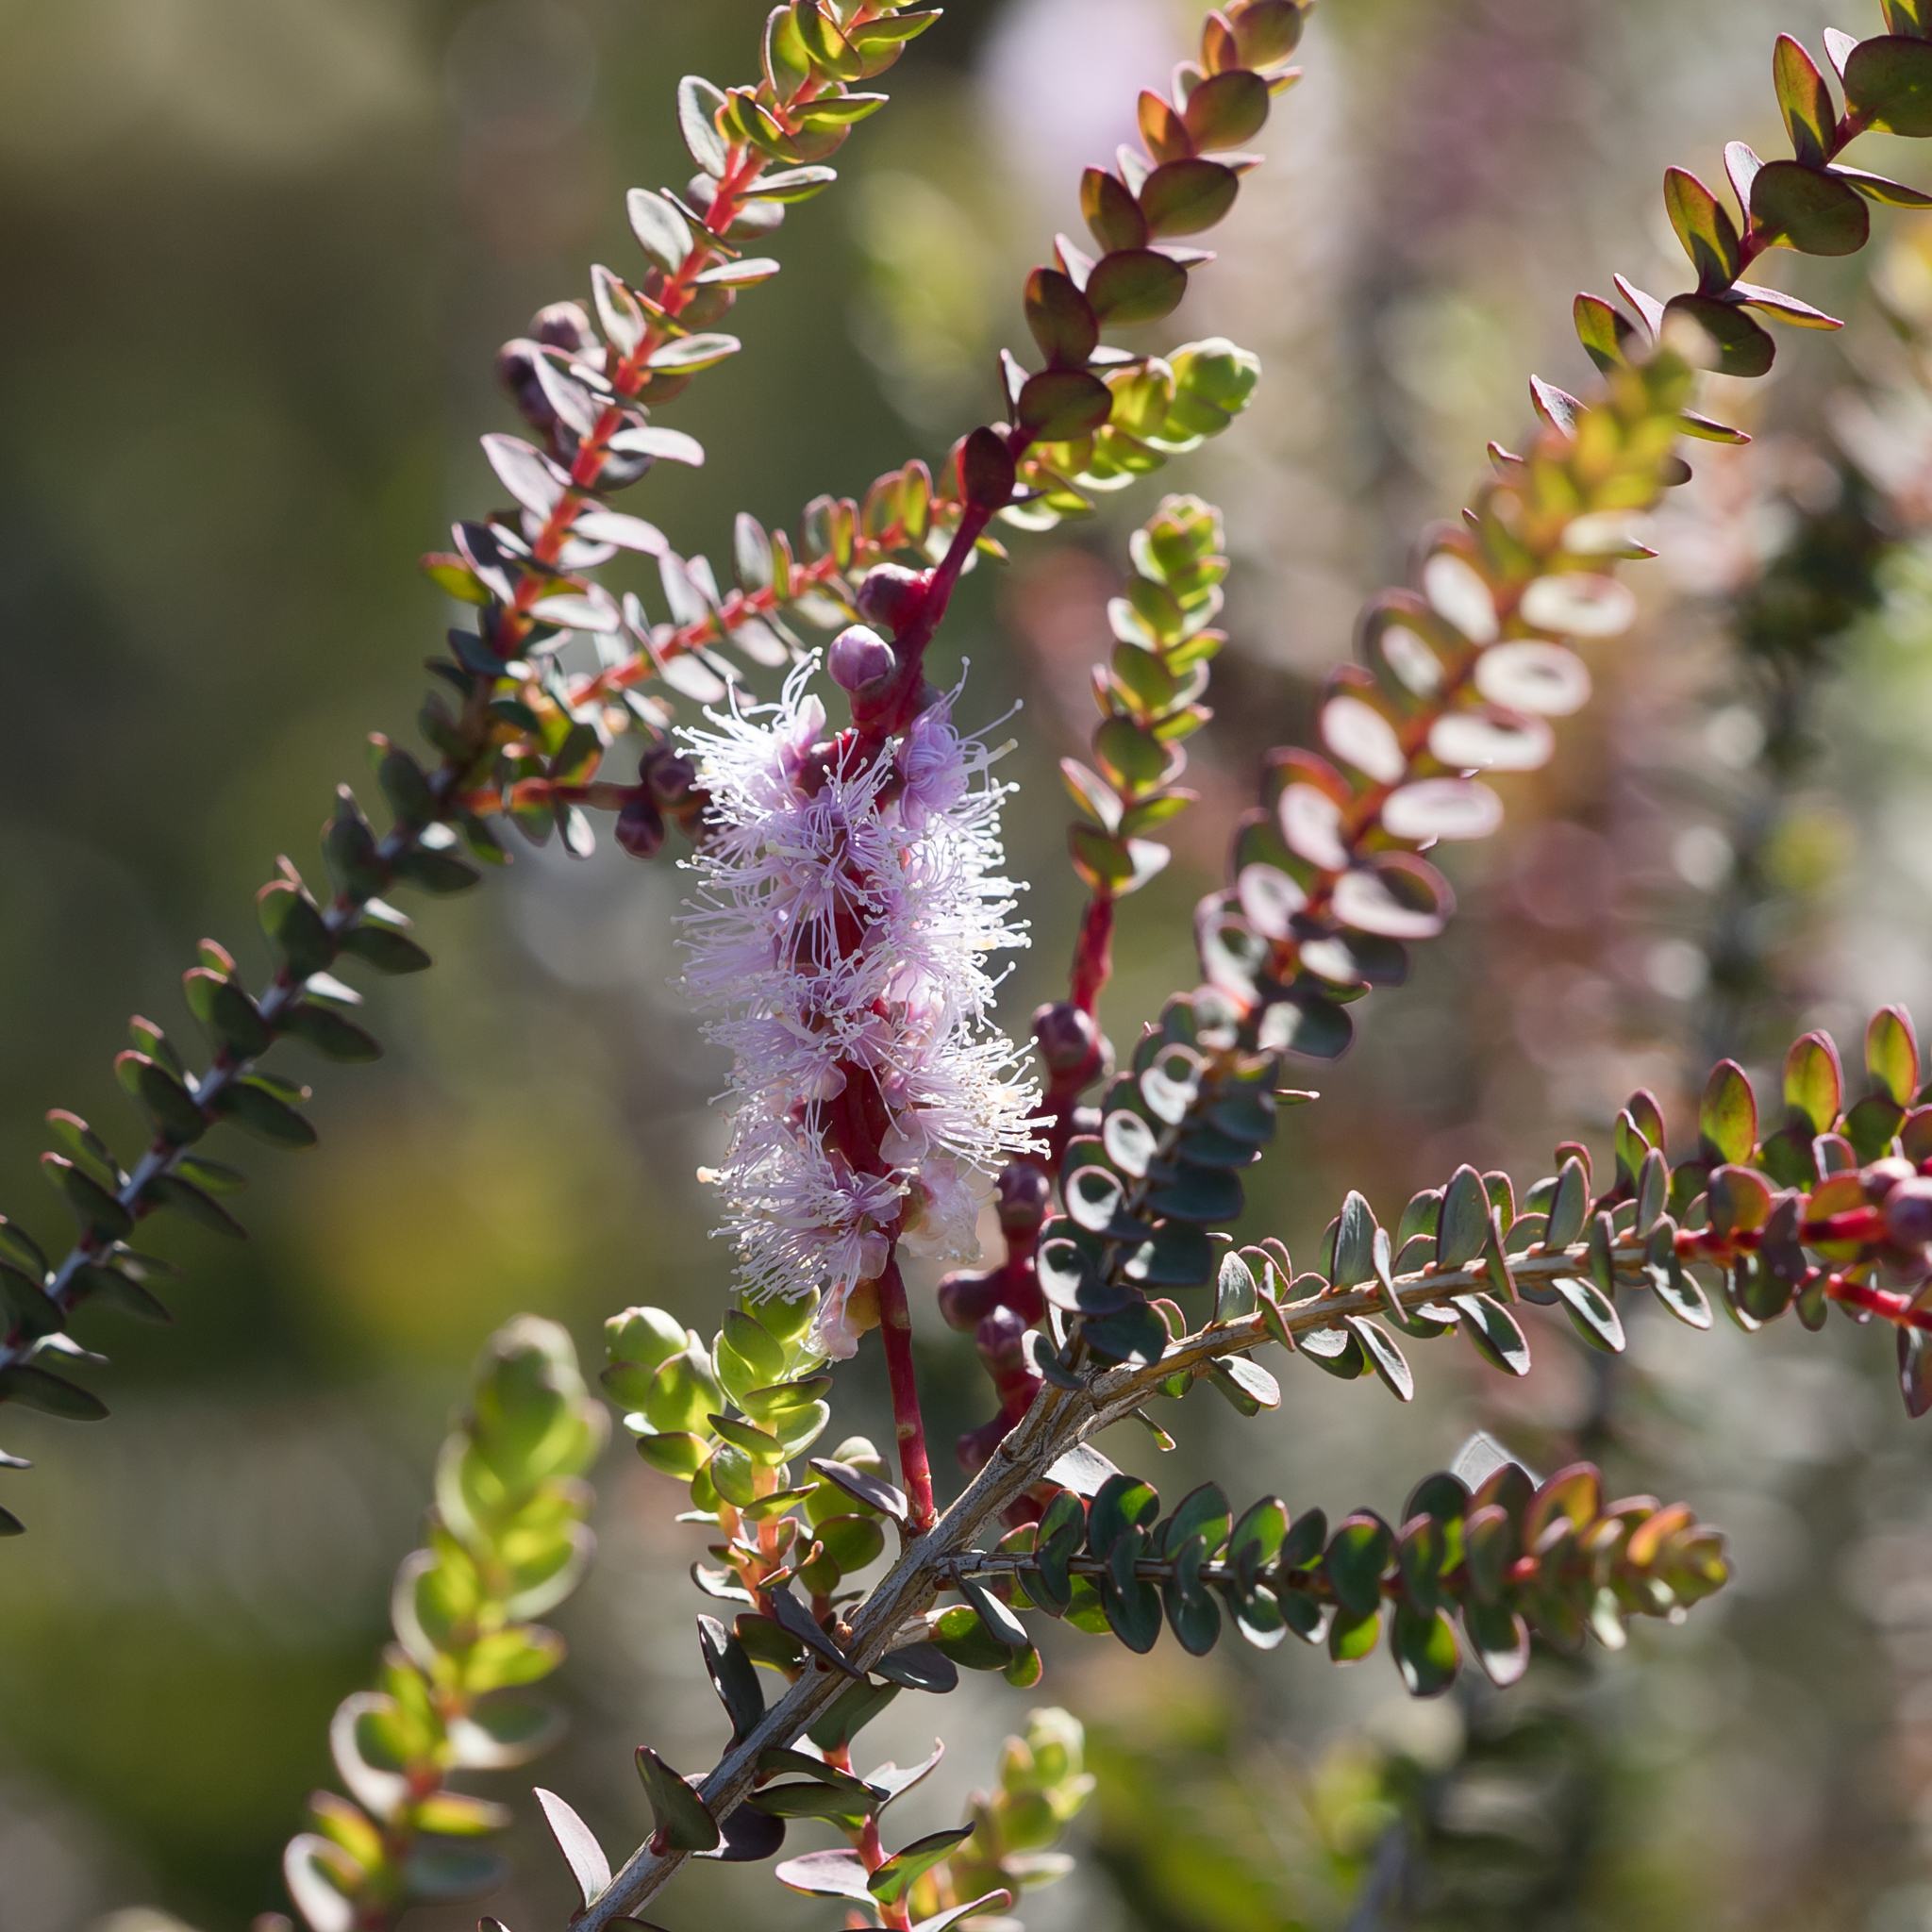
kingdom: Plantae
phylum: Tracheophyta
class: Magnoliopsida
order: Myrtales
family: Myrtaceae
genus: Melaleuca
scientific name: Melaleuca gibbosa
